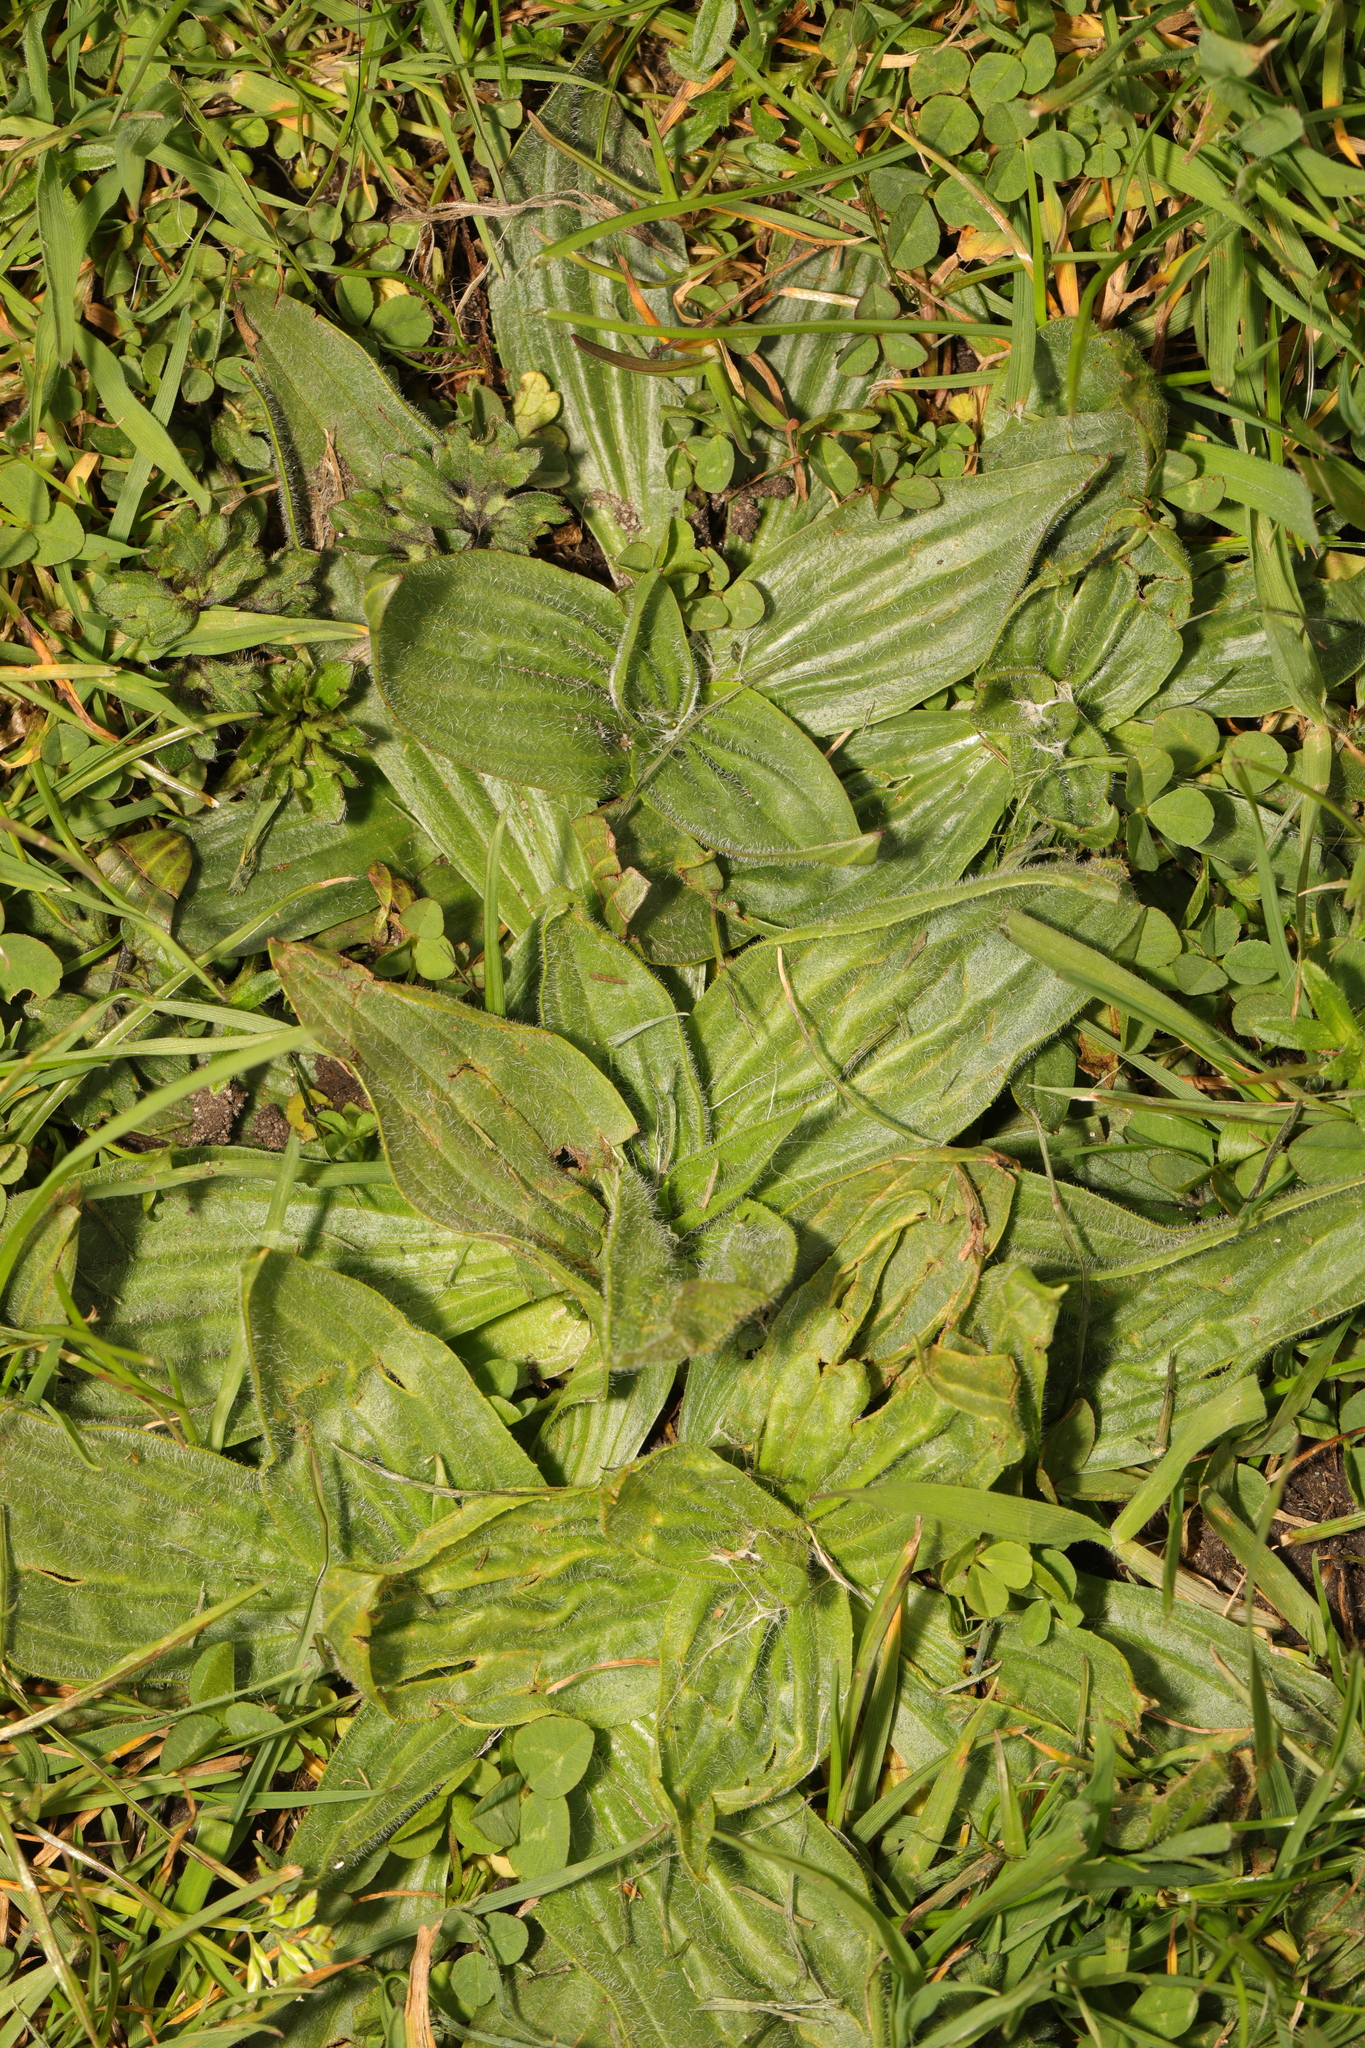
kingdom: Plantae
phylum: Tracheophyta
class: Magnoliopsida
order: Lamiales
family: Plantaginaceae
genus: Plantago
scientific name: Plantago lanceolata
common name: Ribwort plantain
